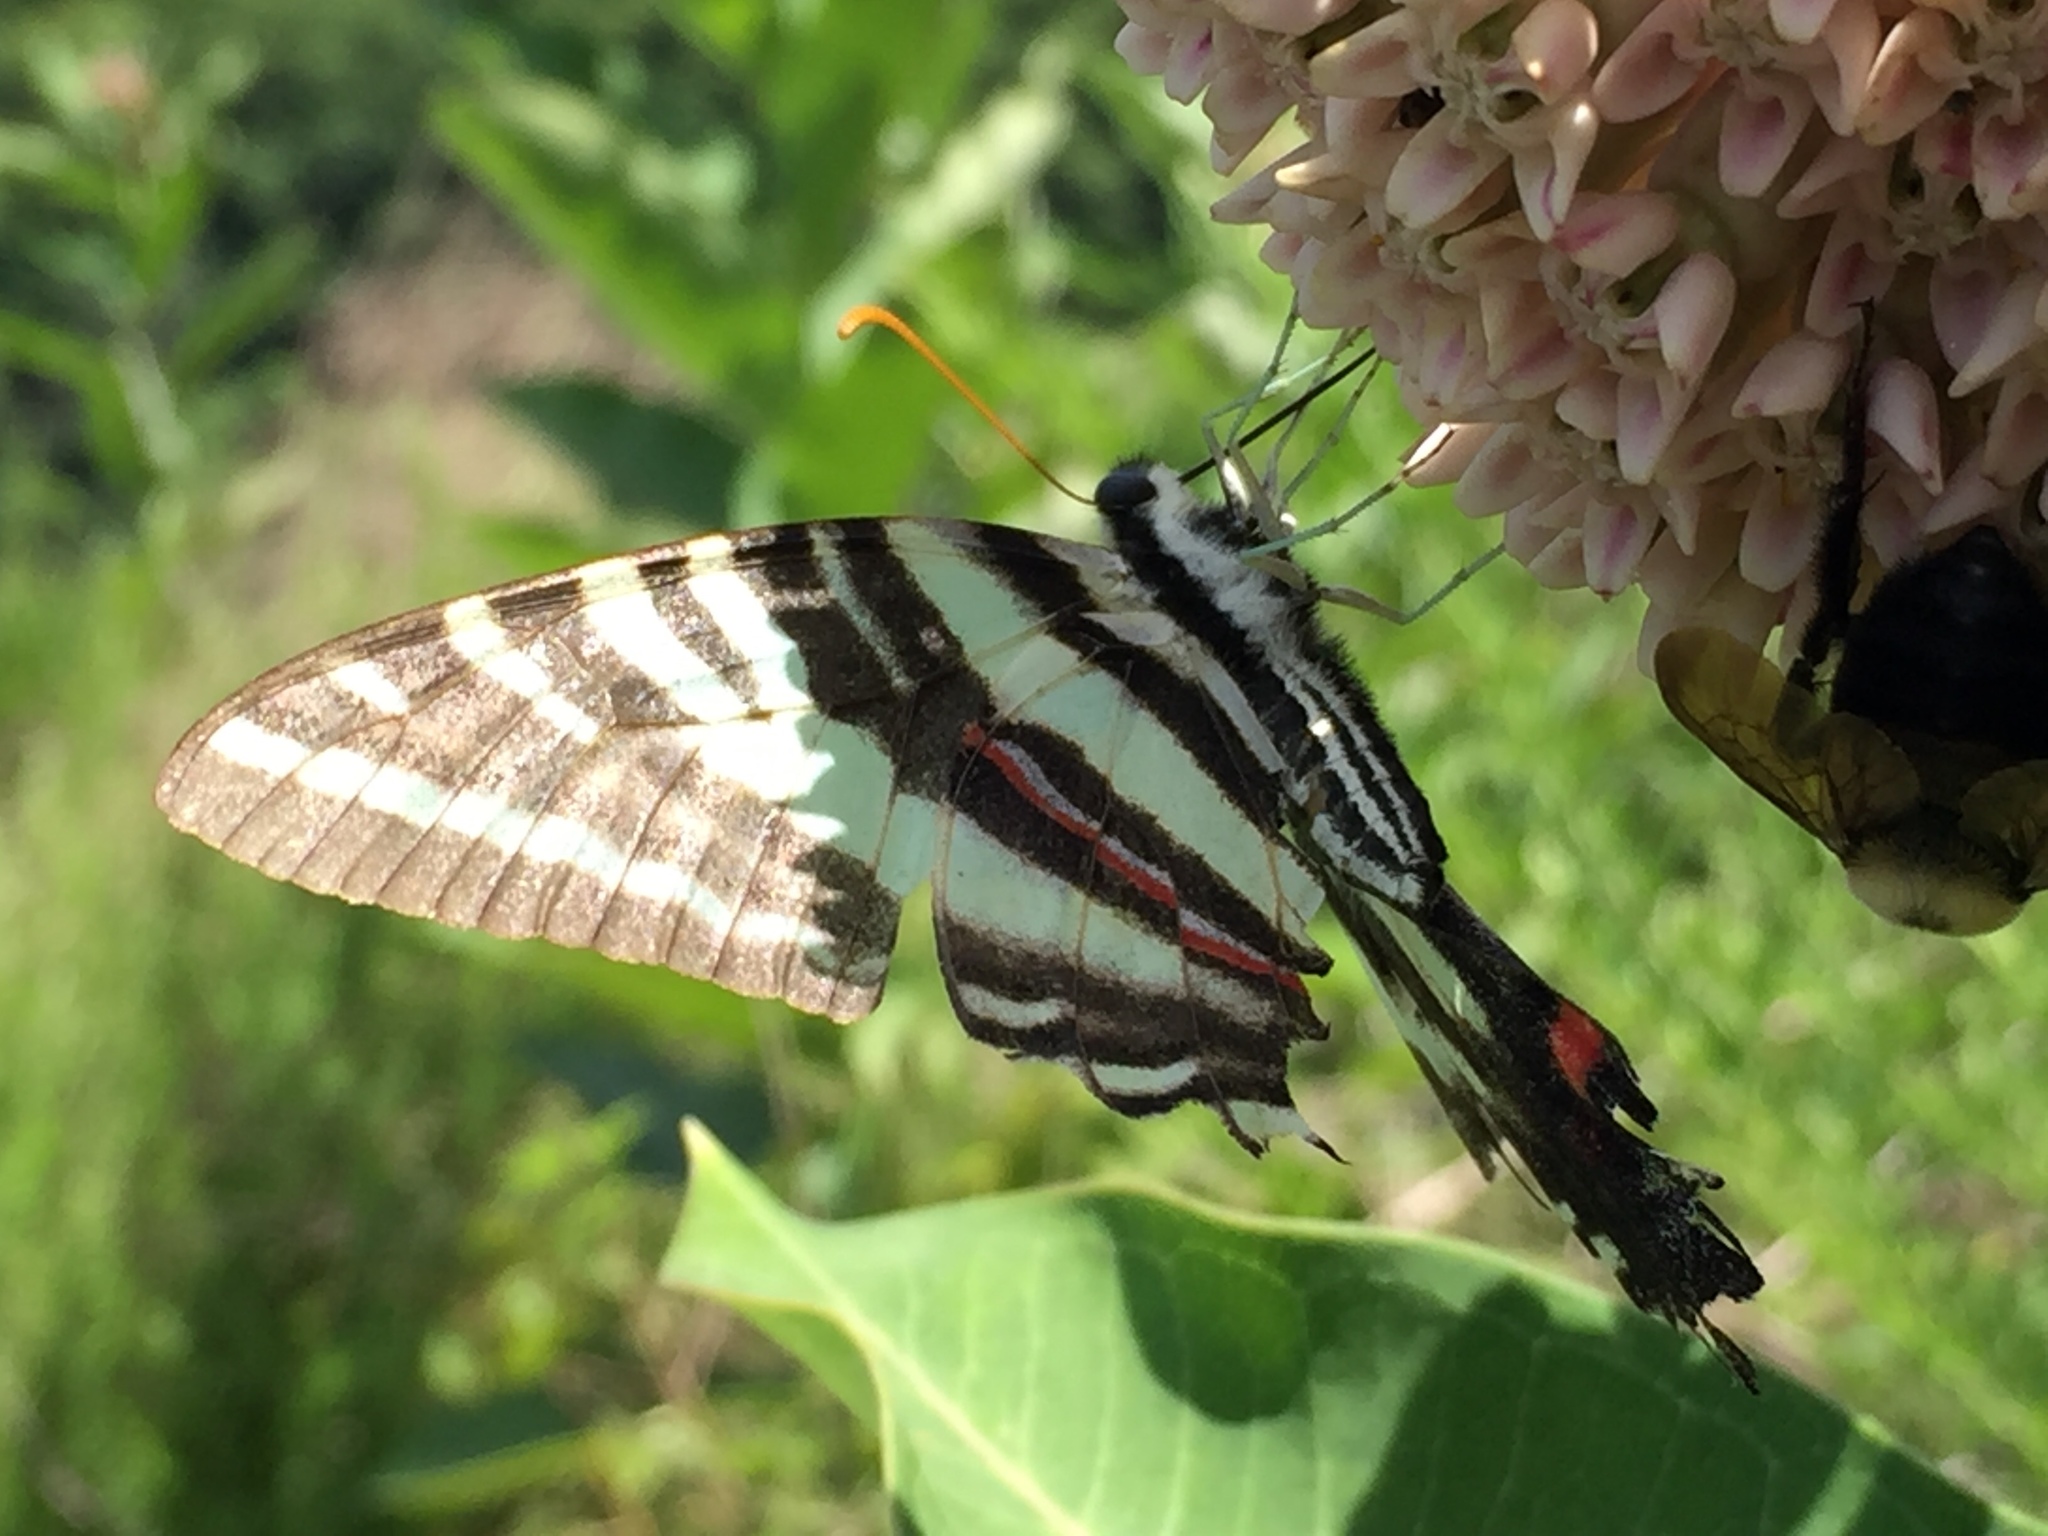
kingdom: Animalia
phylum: Arthropoda
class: Insecta
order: Lepidoptera
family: Papilionidae
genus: Protographium
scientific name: Protographium marcellus
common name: Zebra swallowtail
